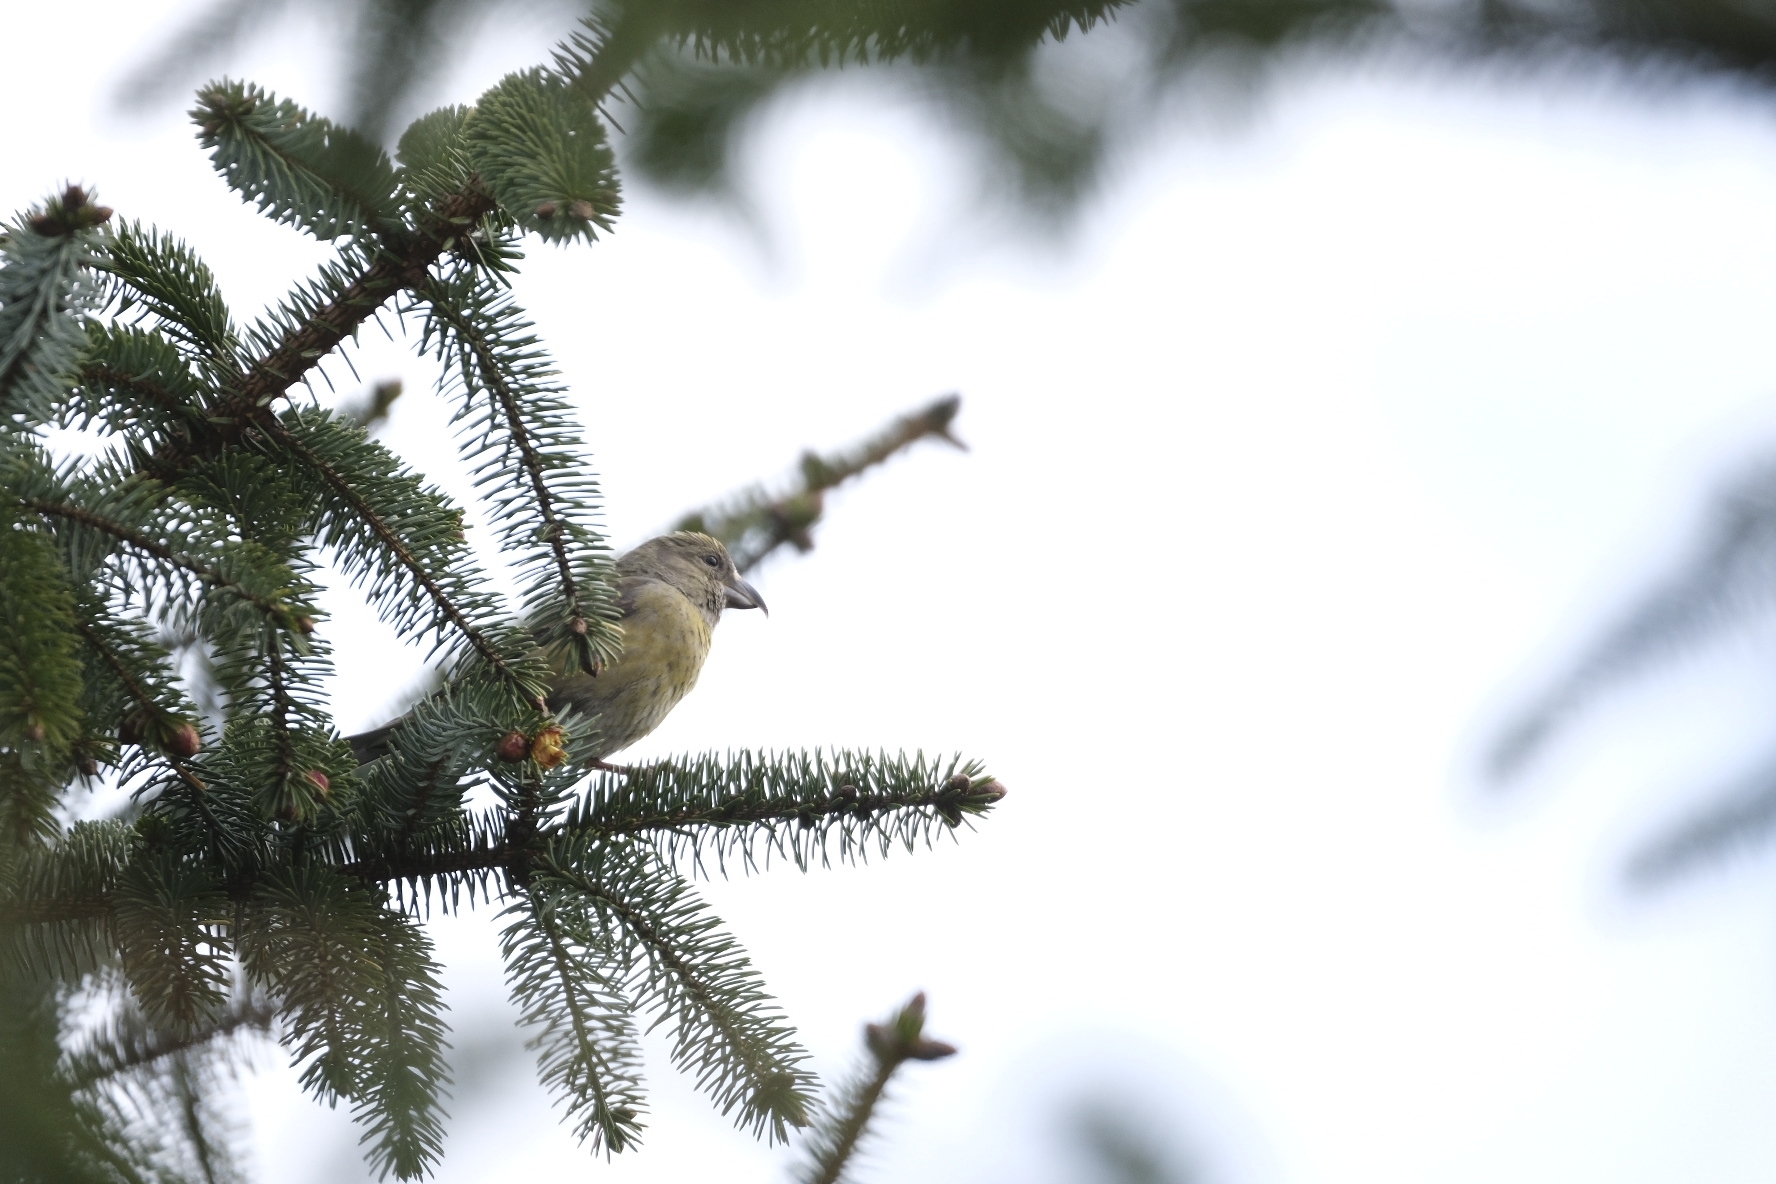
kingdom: Animalia
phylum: Chordata
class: Aves
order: Passeriformes
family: Fringillidae
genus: Loxia
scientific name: Loxia
